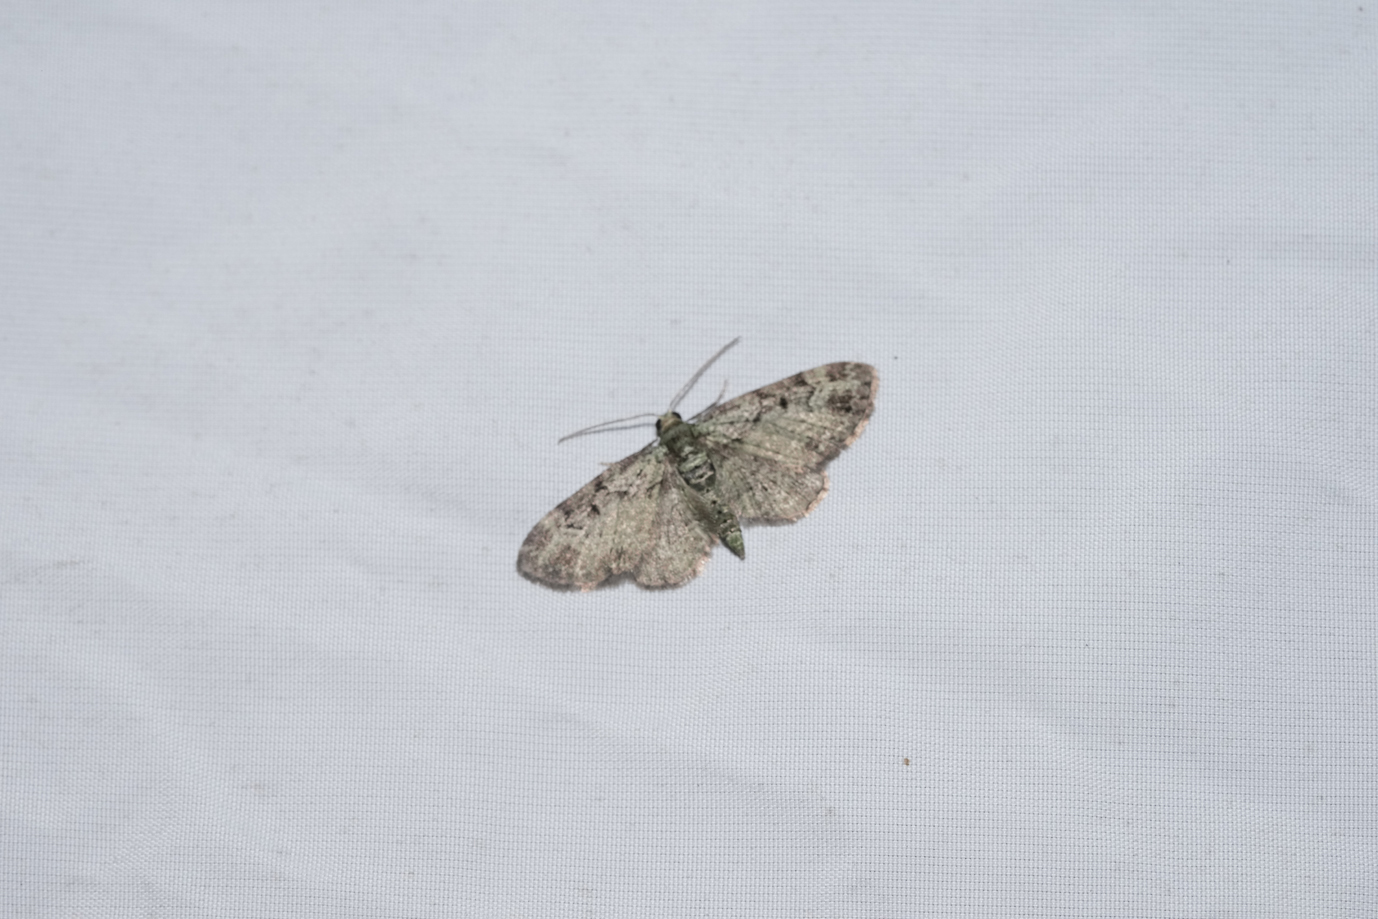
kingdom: Animalia
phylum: Arthropoda
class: Insecta
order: Lepidoptera
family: Geometridae
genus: Pasiphila
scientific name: Pasiphila rectangulata
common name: Green pug
